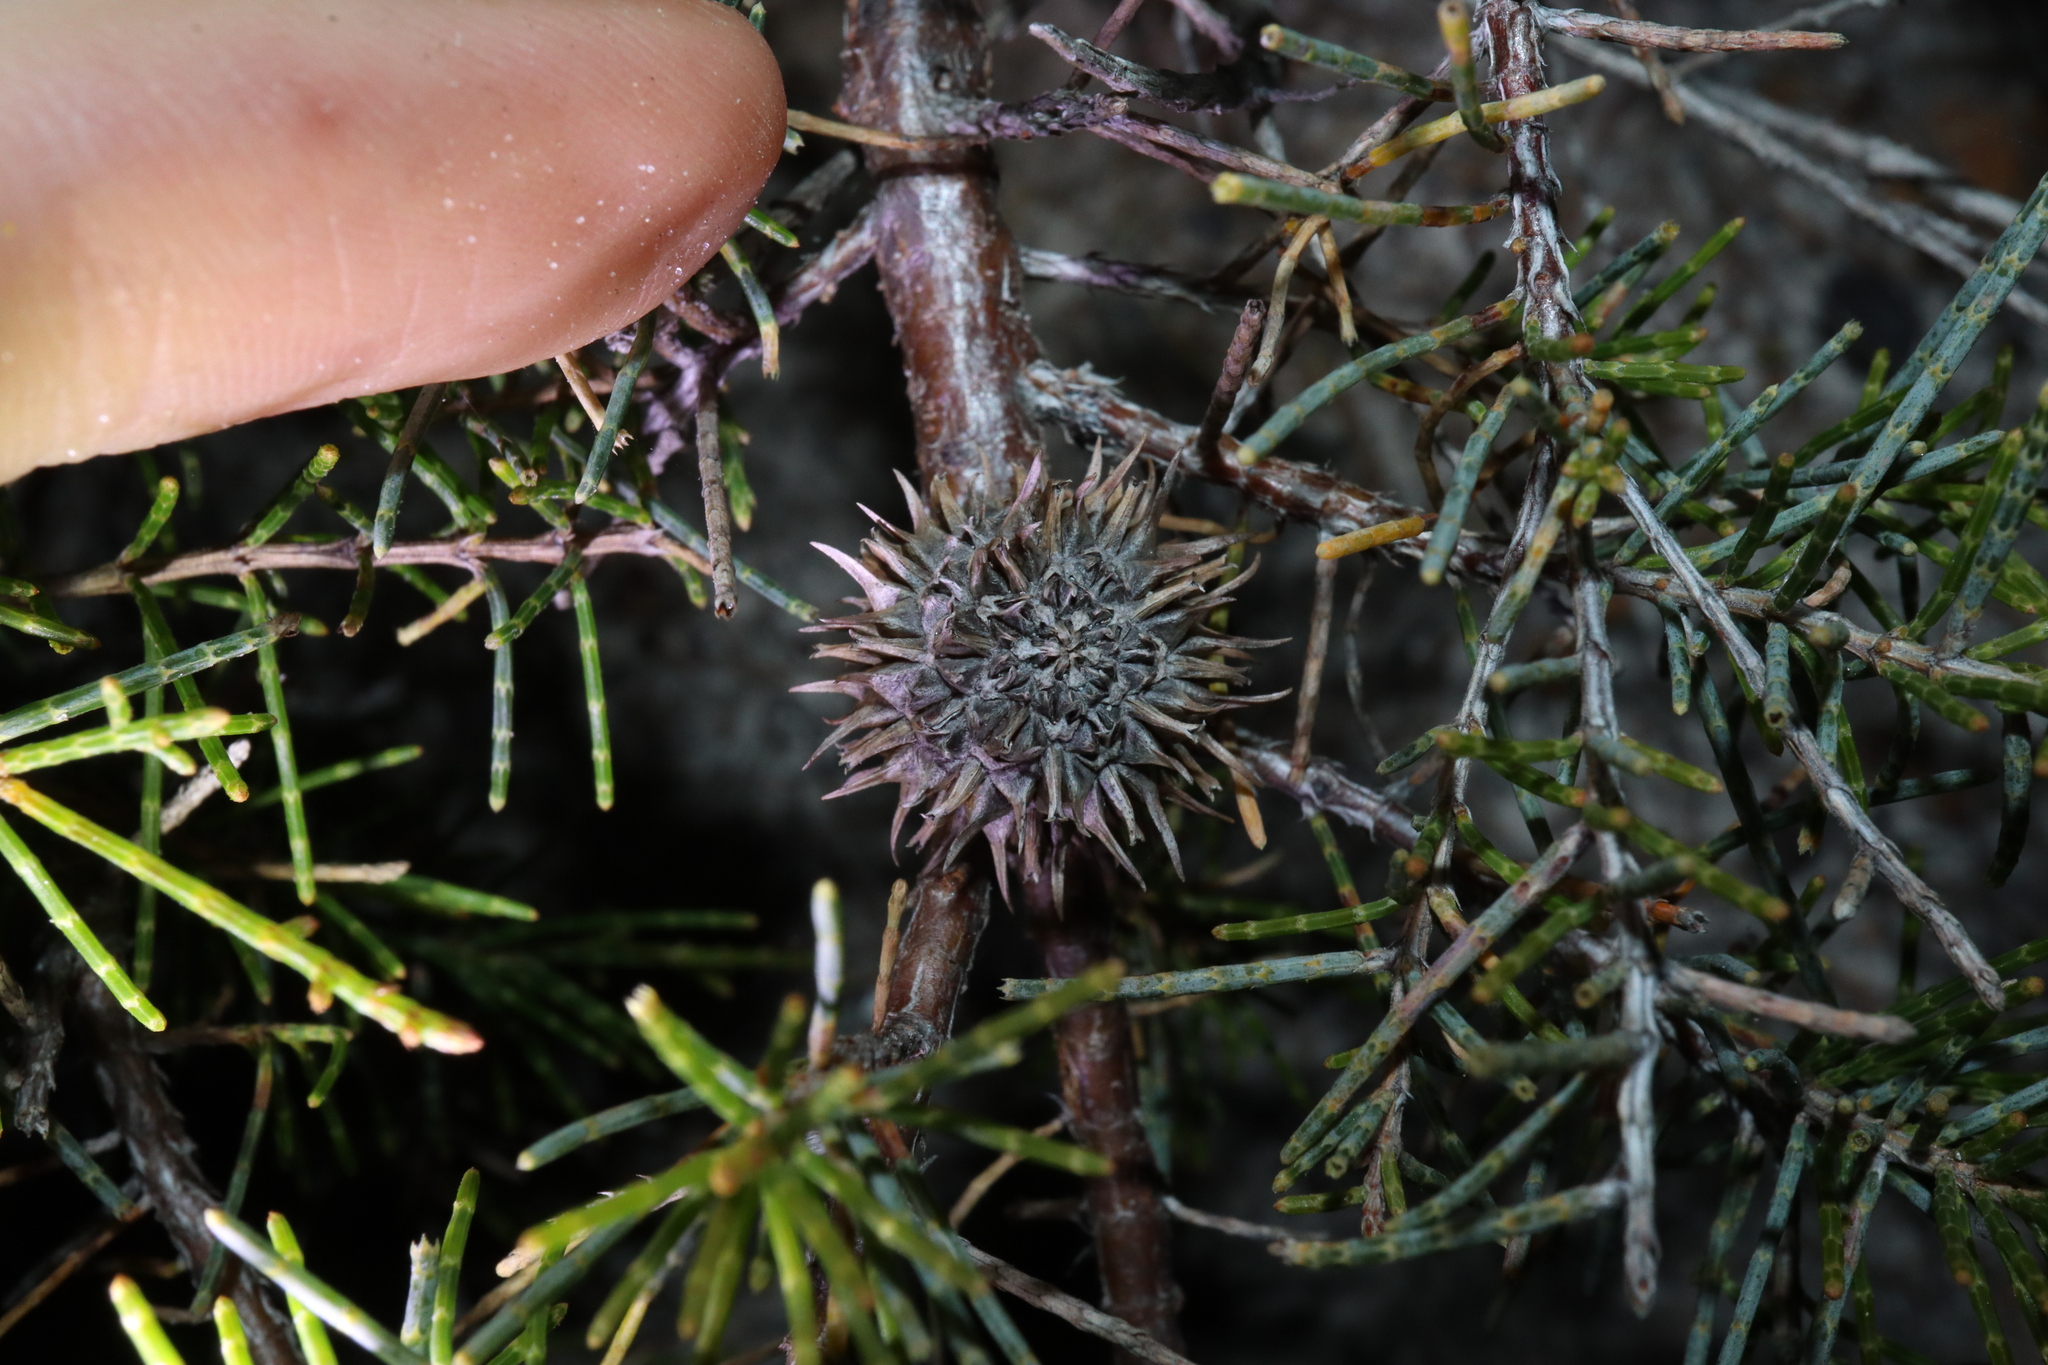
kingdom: Plantae
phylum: Tracheophyta
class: Magnoliopsida
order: Fagales
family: Casuarinaceae
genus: Allocasuarina
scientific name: Allocasuarina thuyoides
